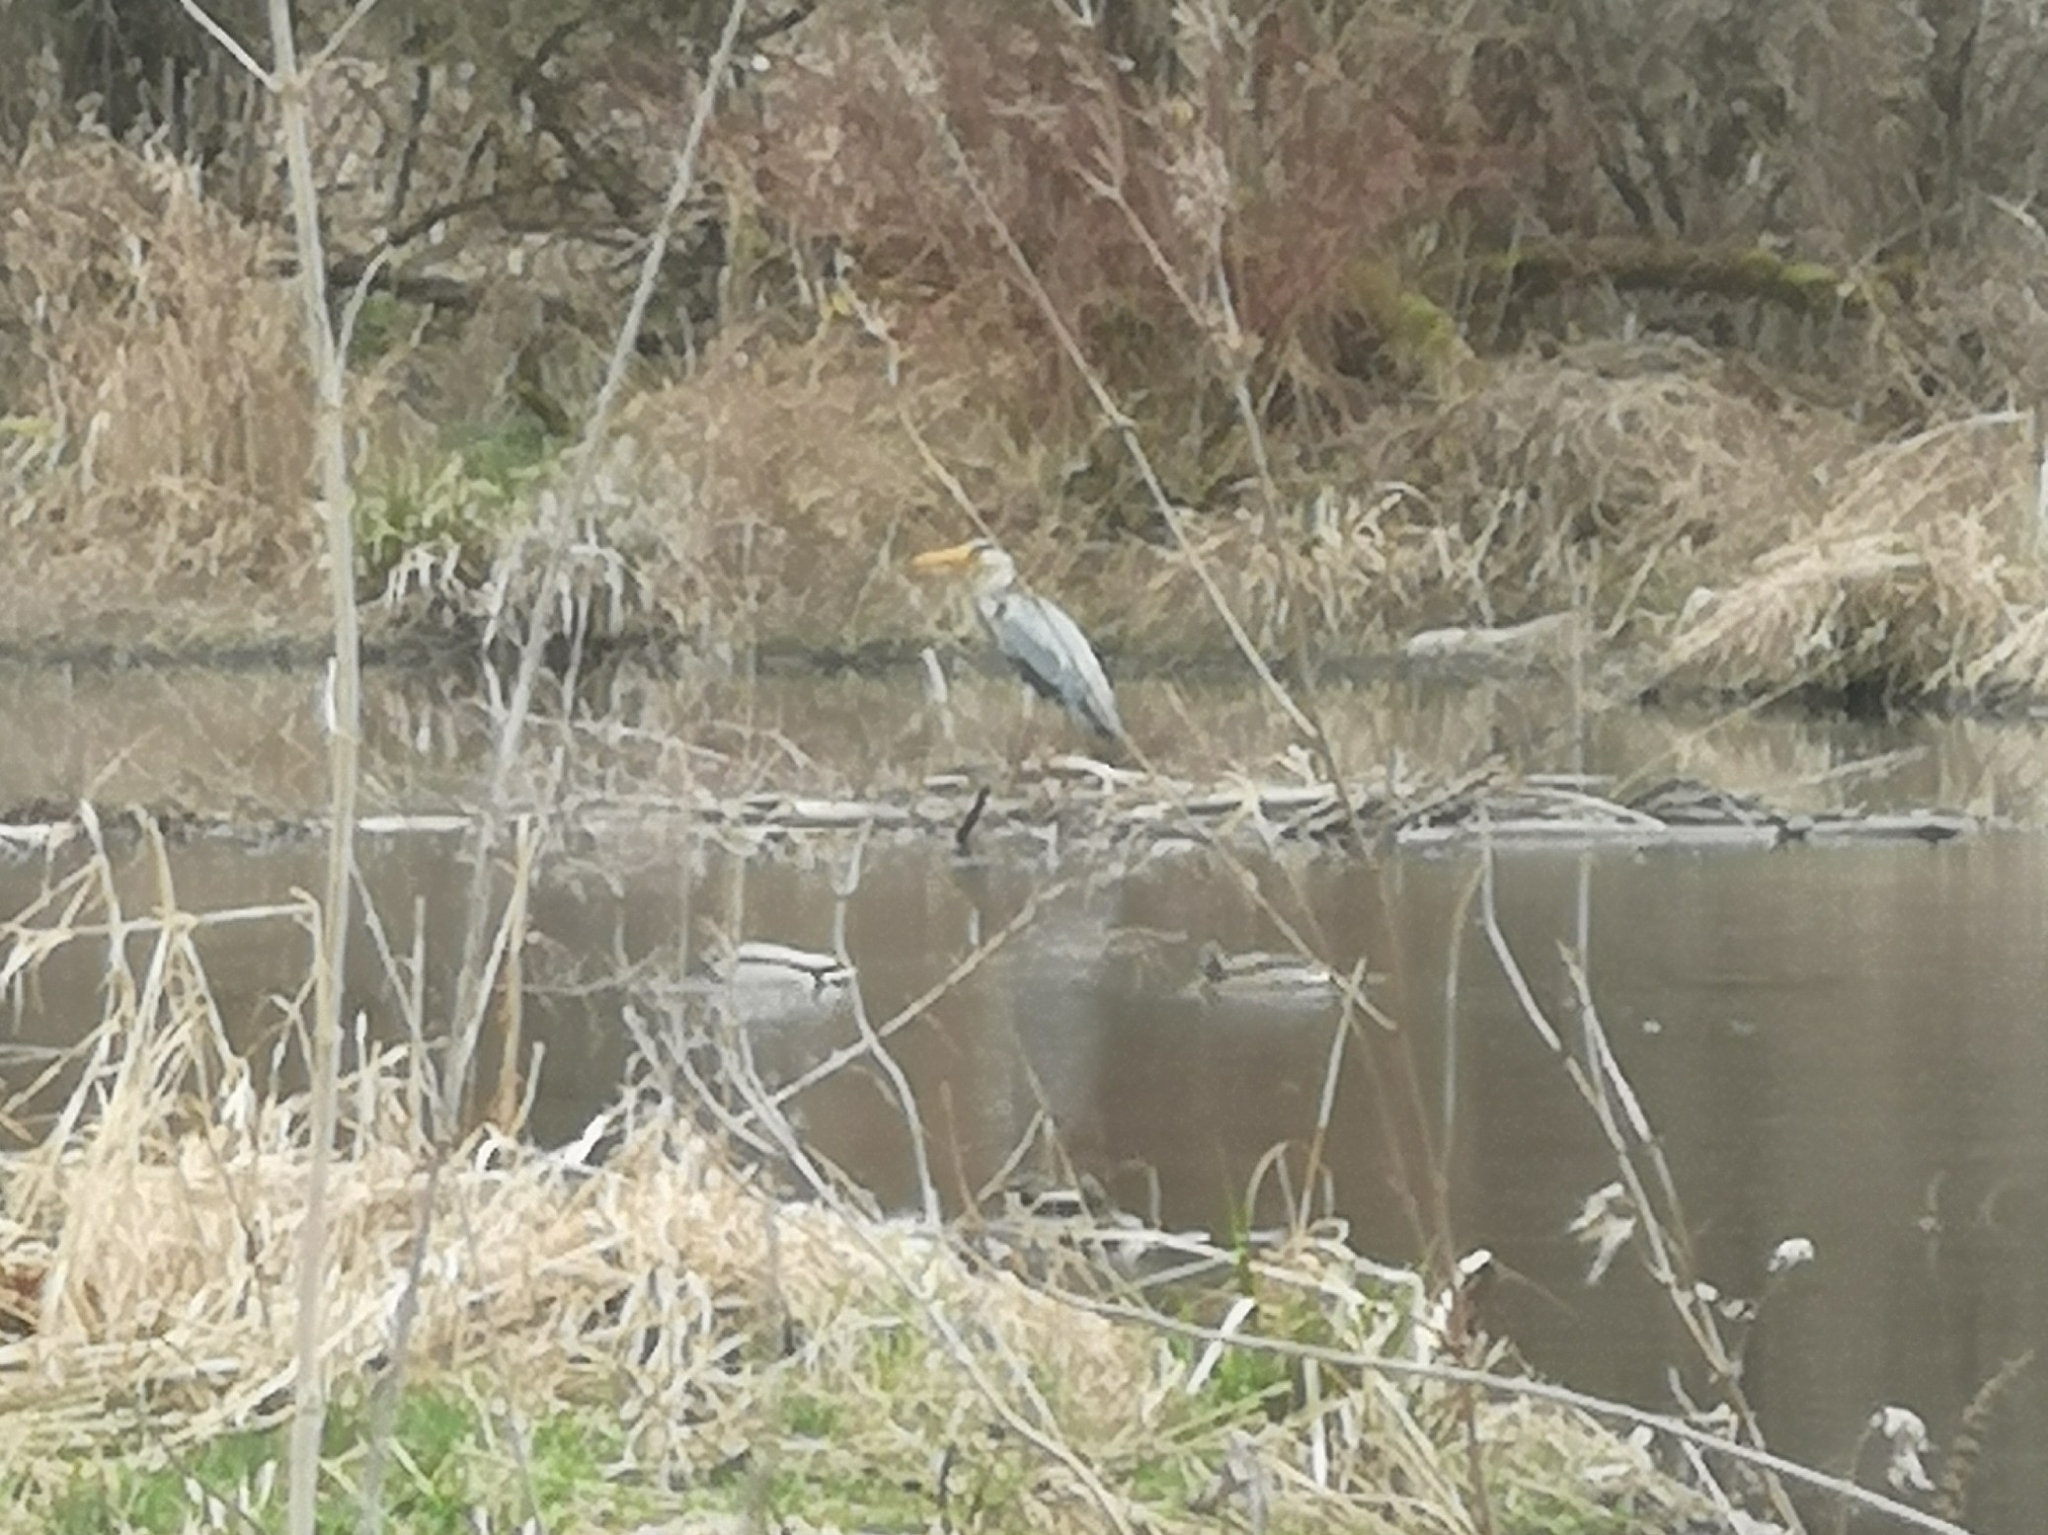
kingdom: Animalia
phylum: Chordata
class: Aves
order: Pelecaniformes
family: Ardeidae
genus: Ardea
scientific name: Ardea cinerea
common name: Grey heron
